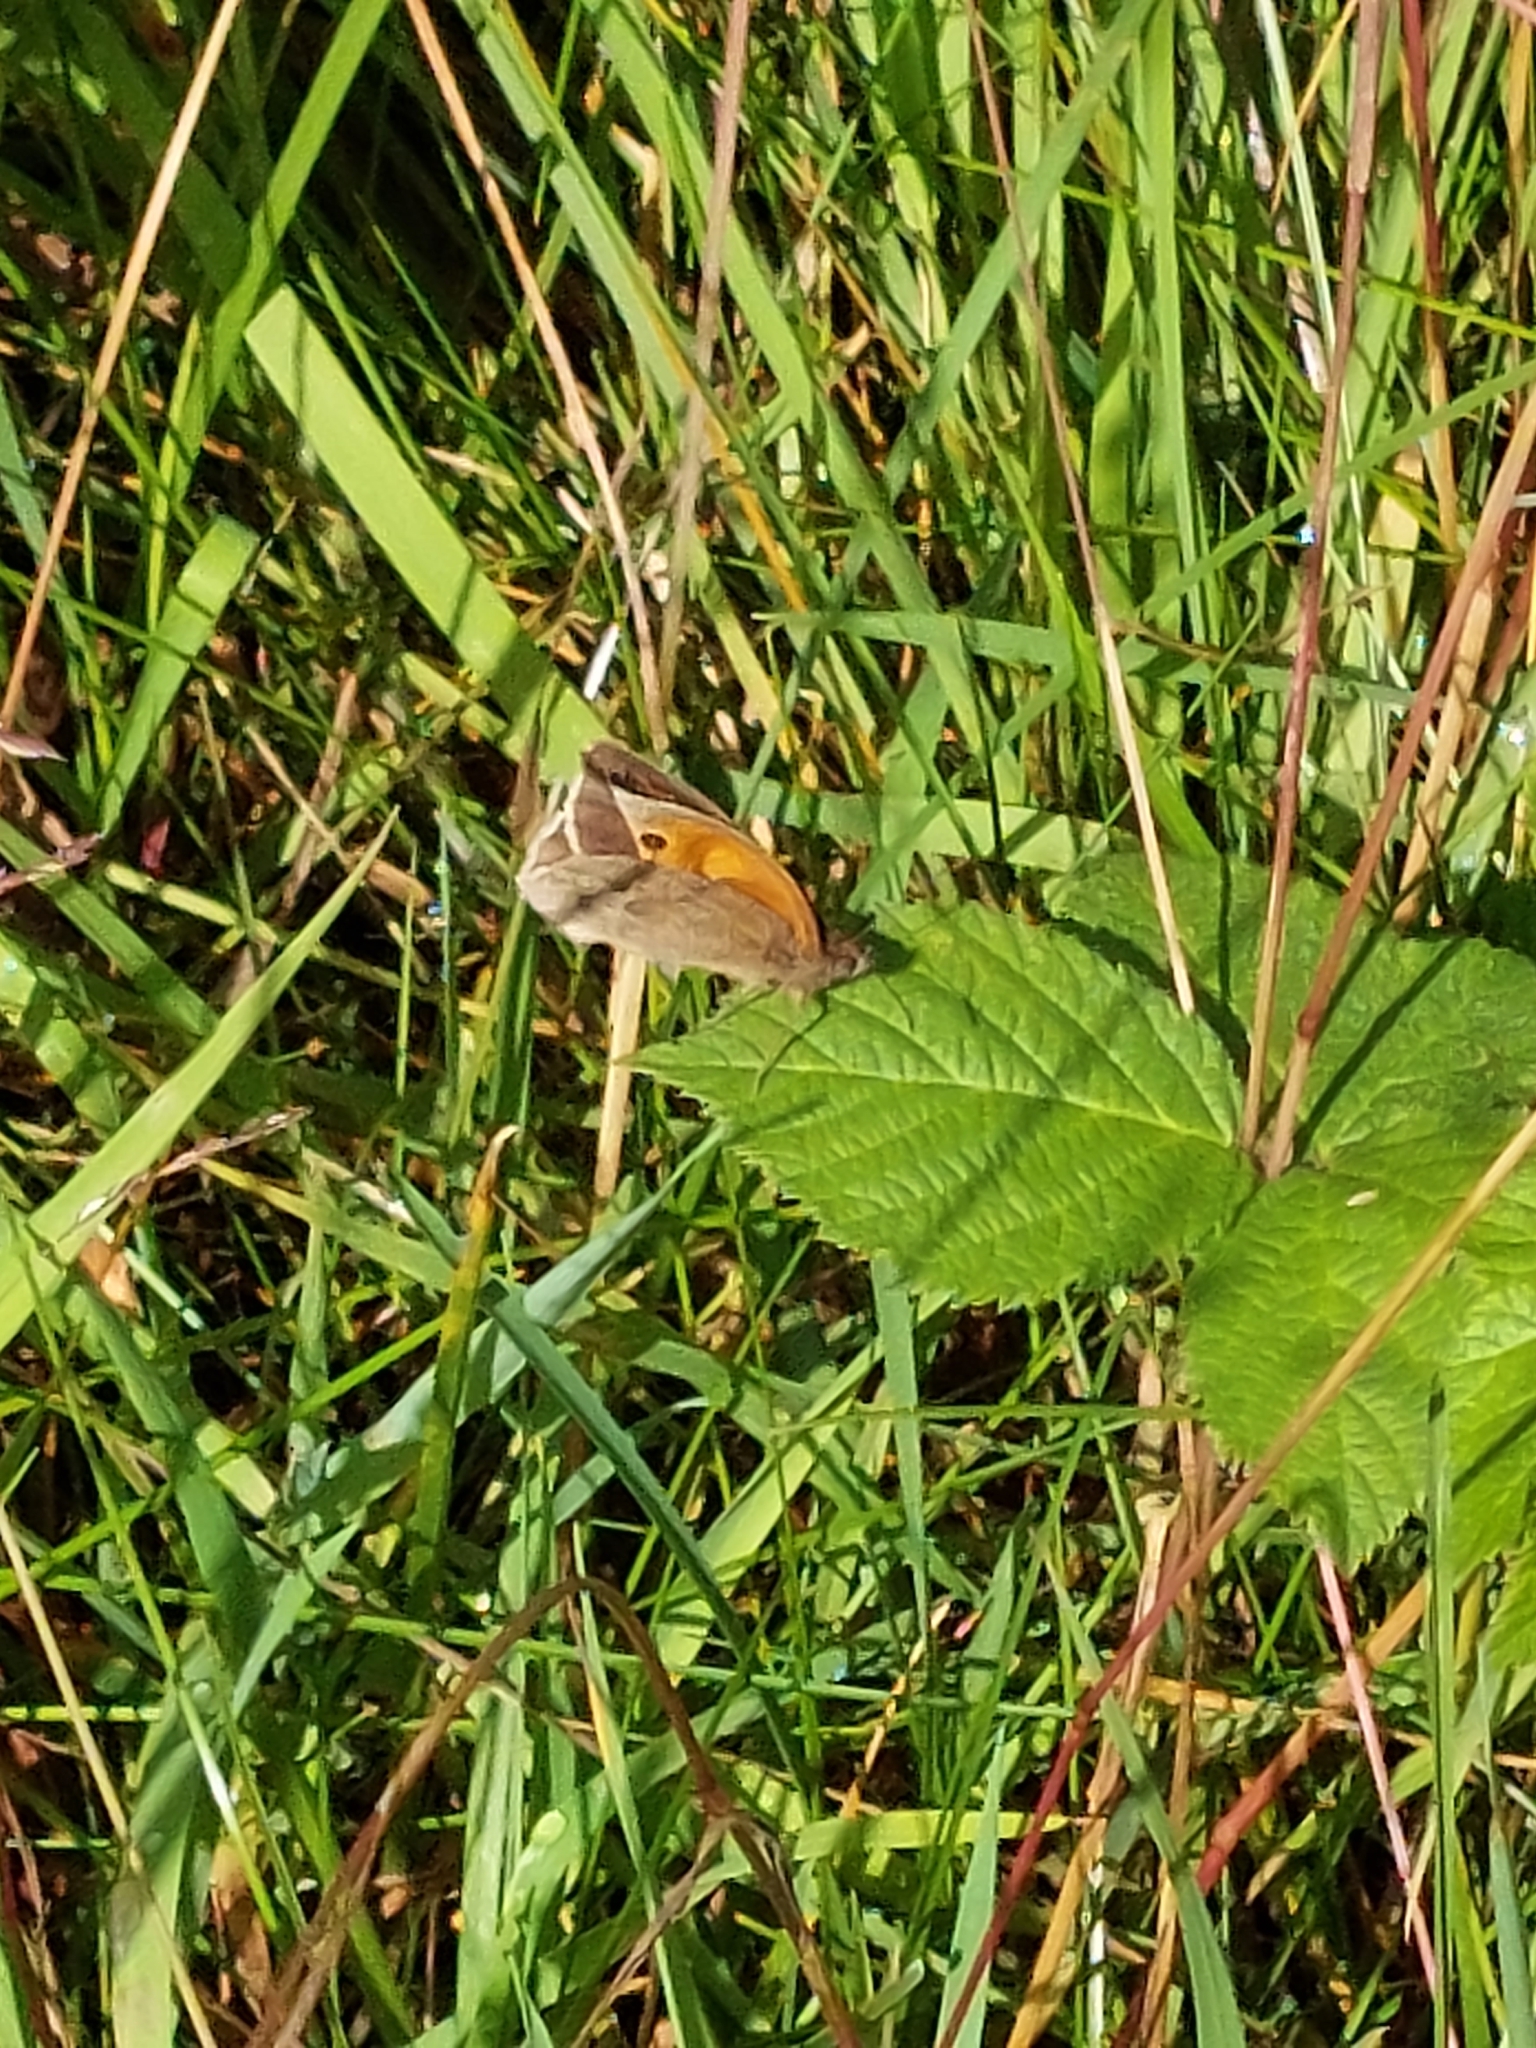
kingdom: Animalia
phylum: Arthropoda
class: Insecta
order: Lepidoptera
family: Nymphalidae
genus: Maniola
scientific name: Maniola jurtina
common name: Meadow brown
